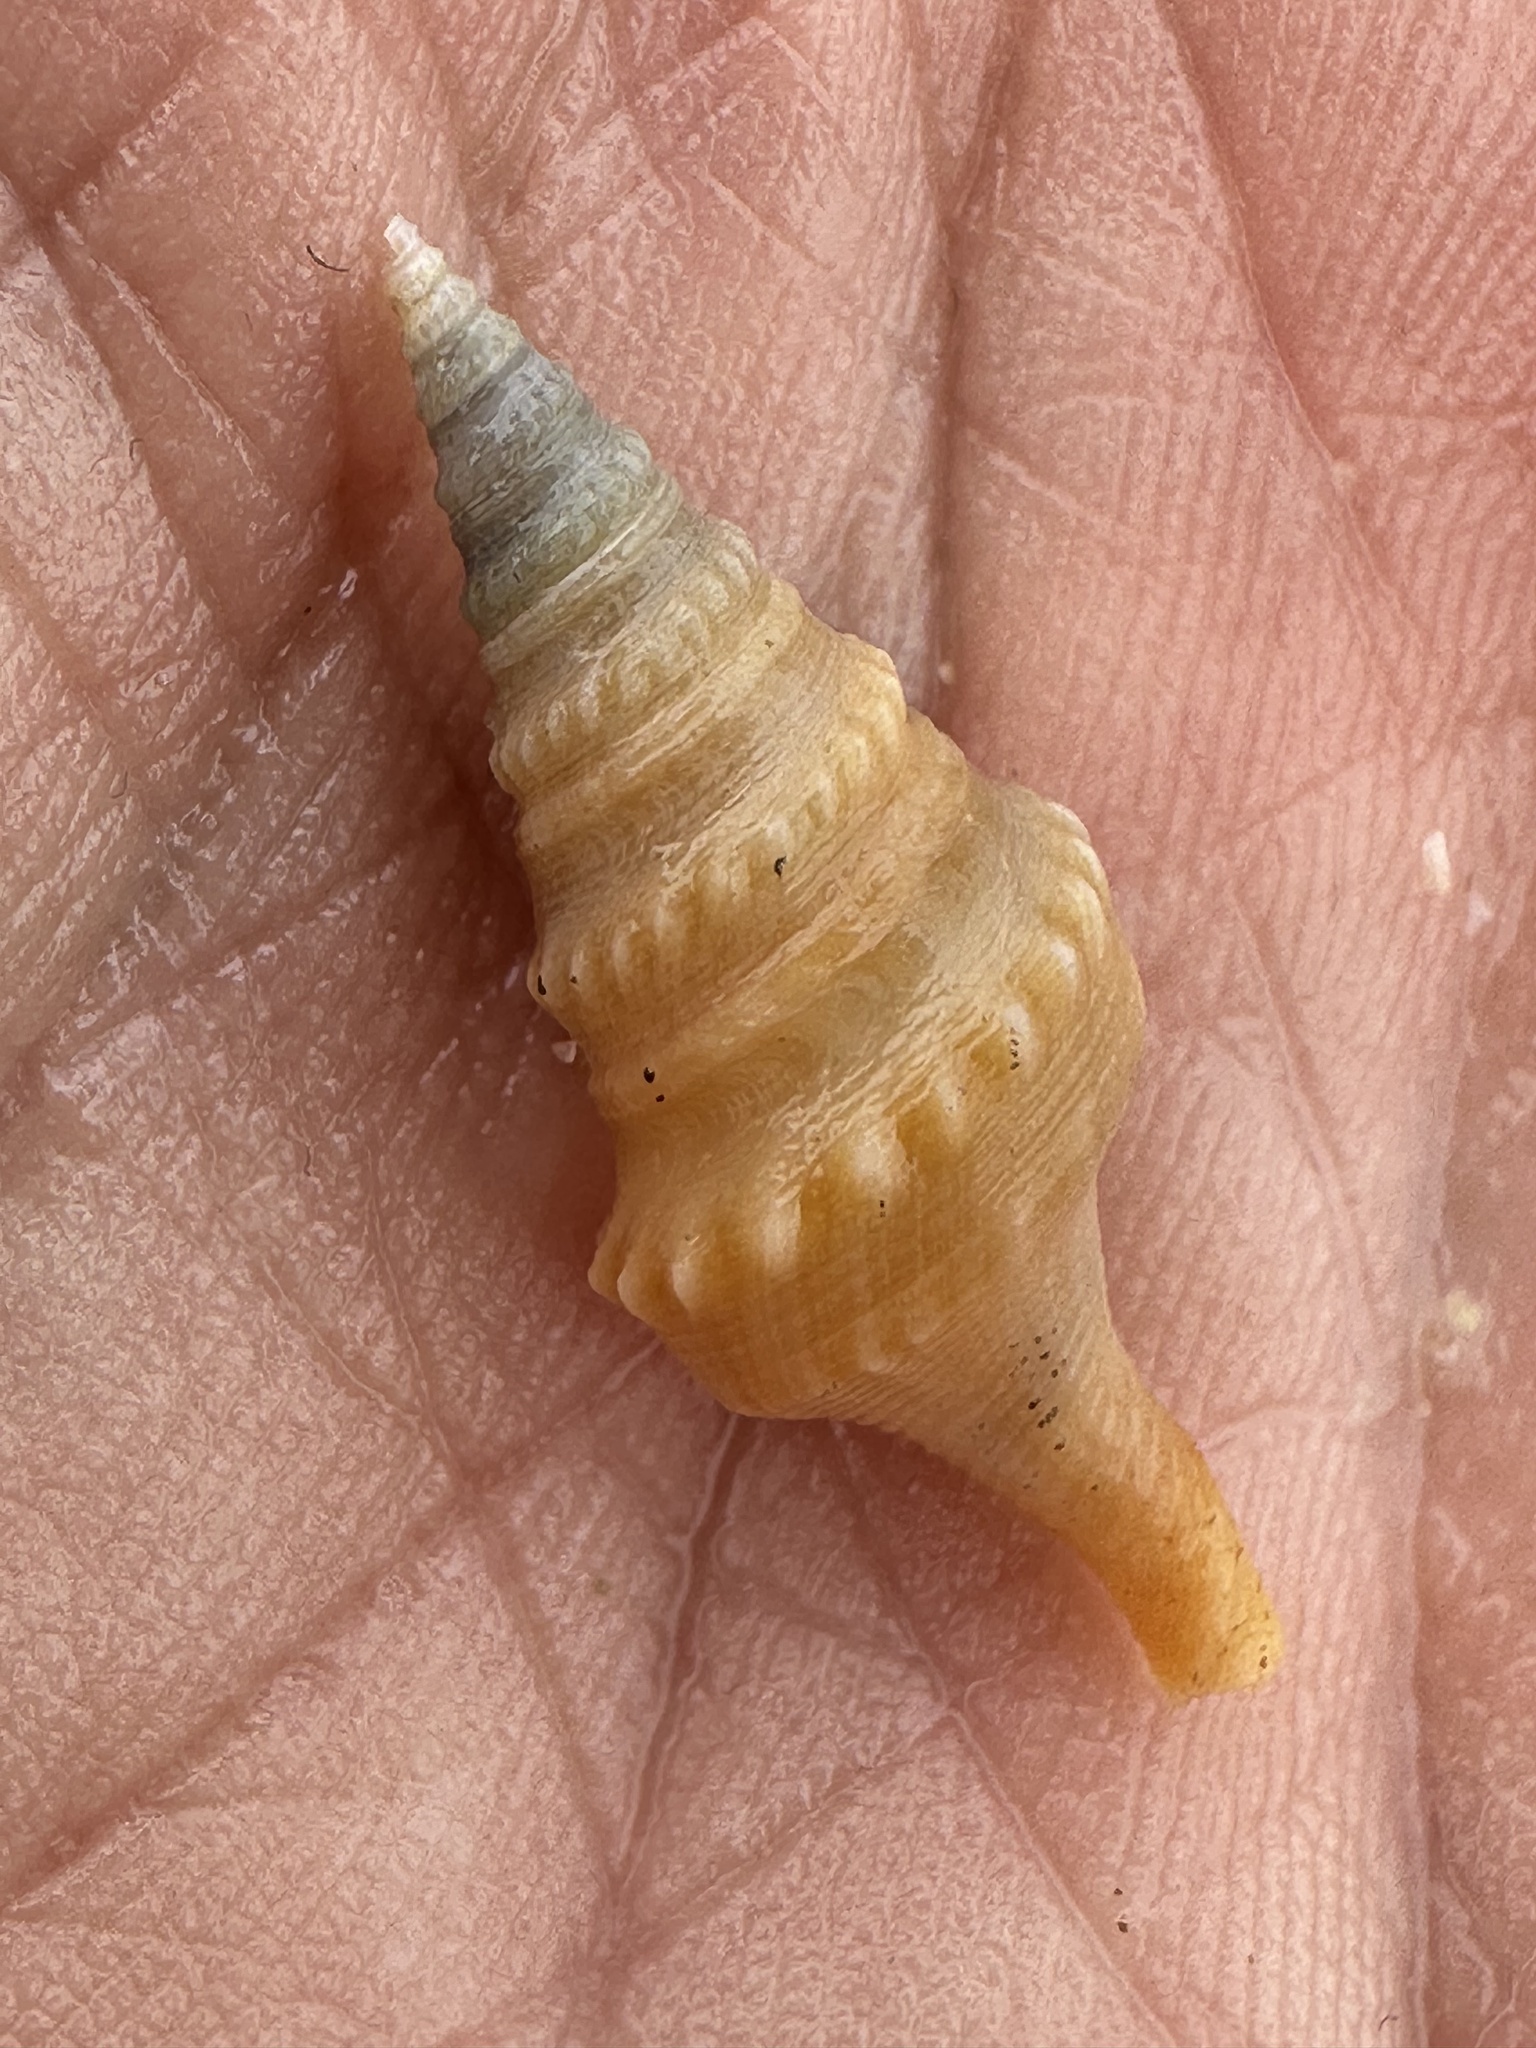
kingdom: Animalia
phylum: Mollusca
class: Gastropoda
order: Neogastropoda
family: Clavatulidae
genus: Turricula
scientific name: Turricula javana
